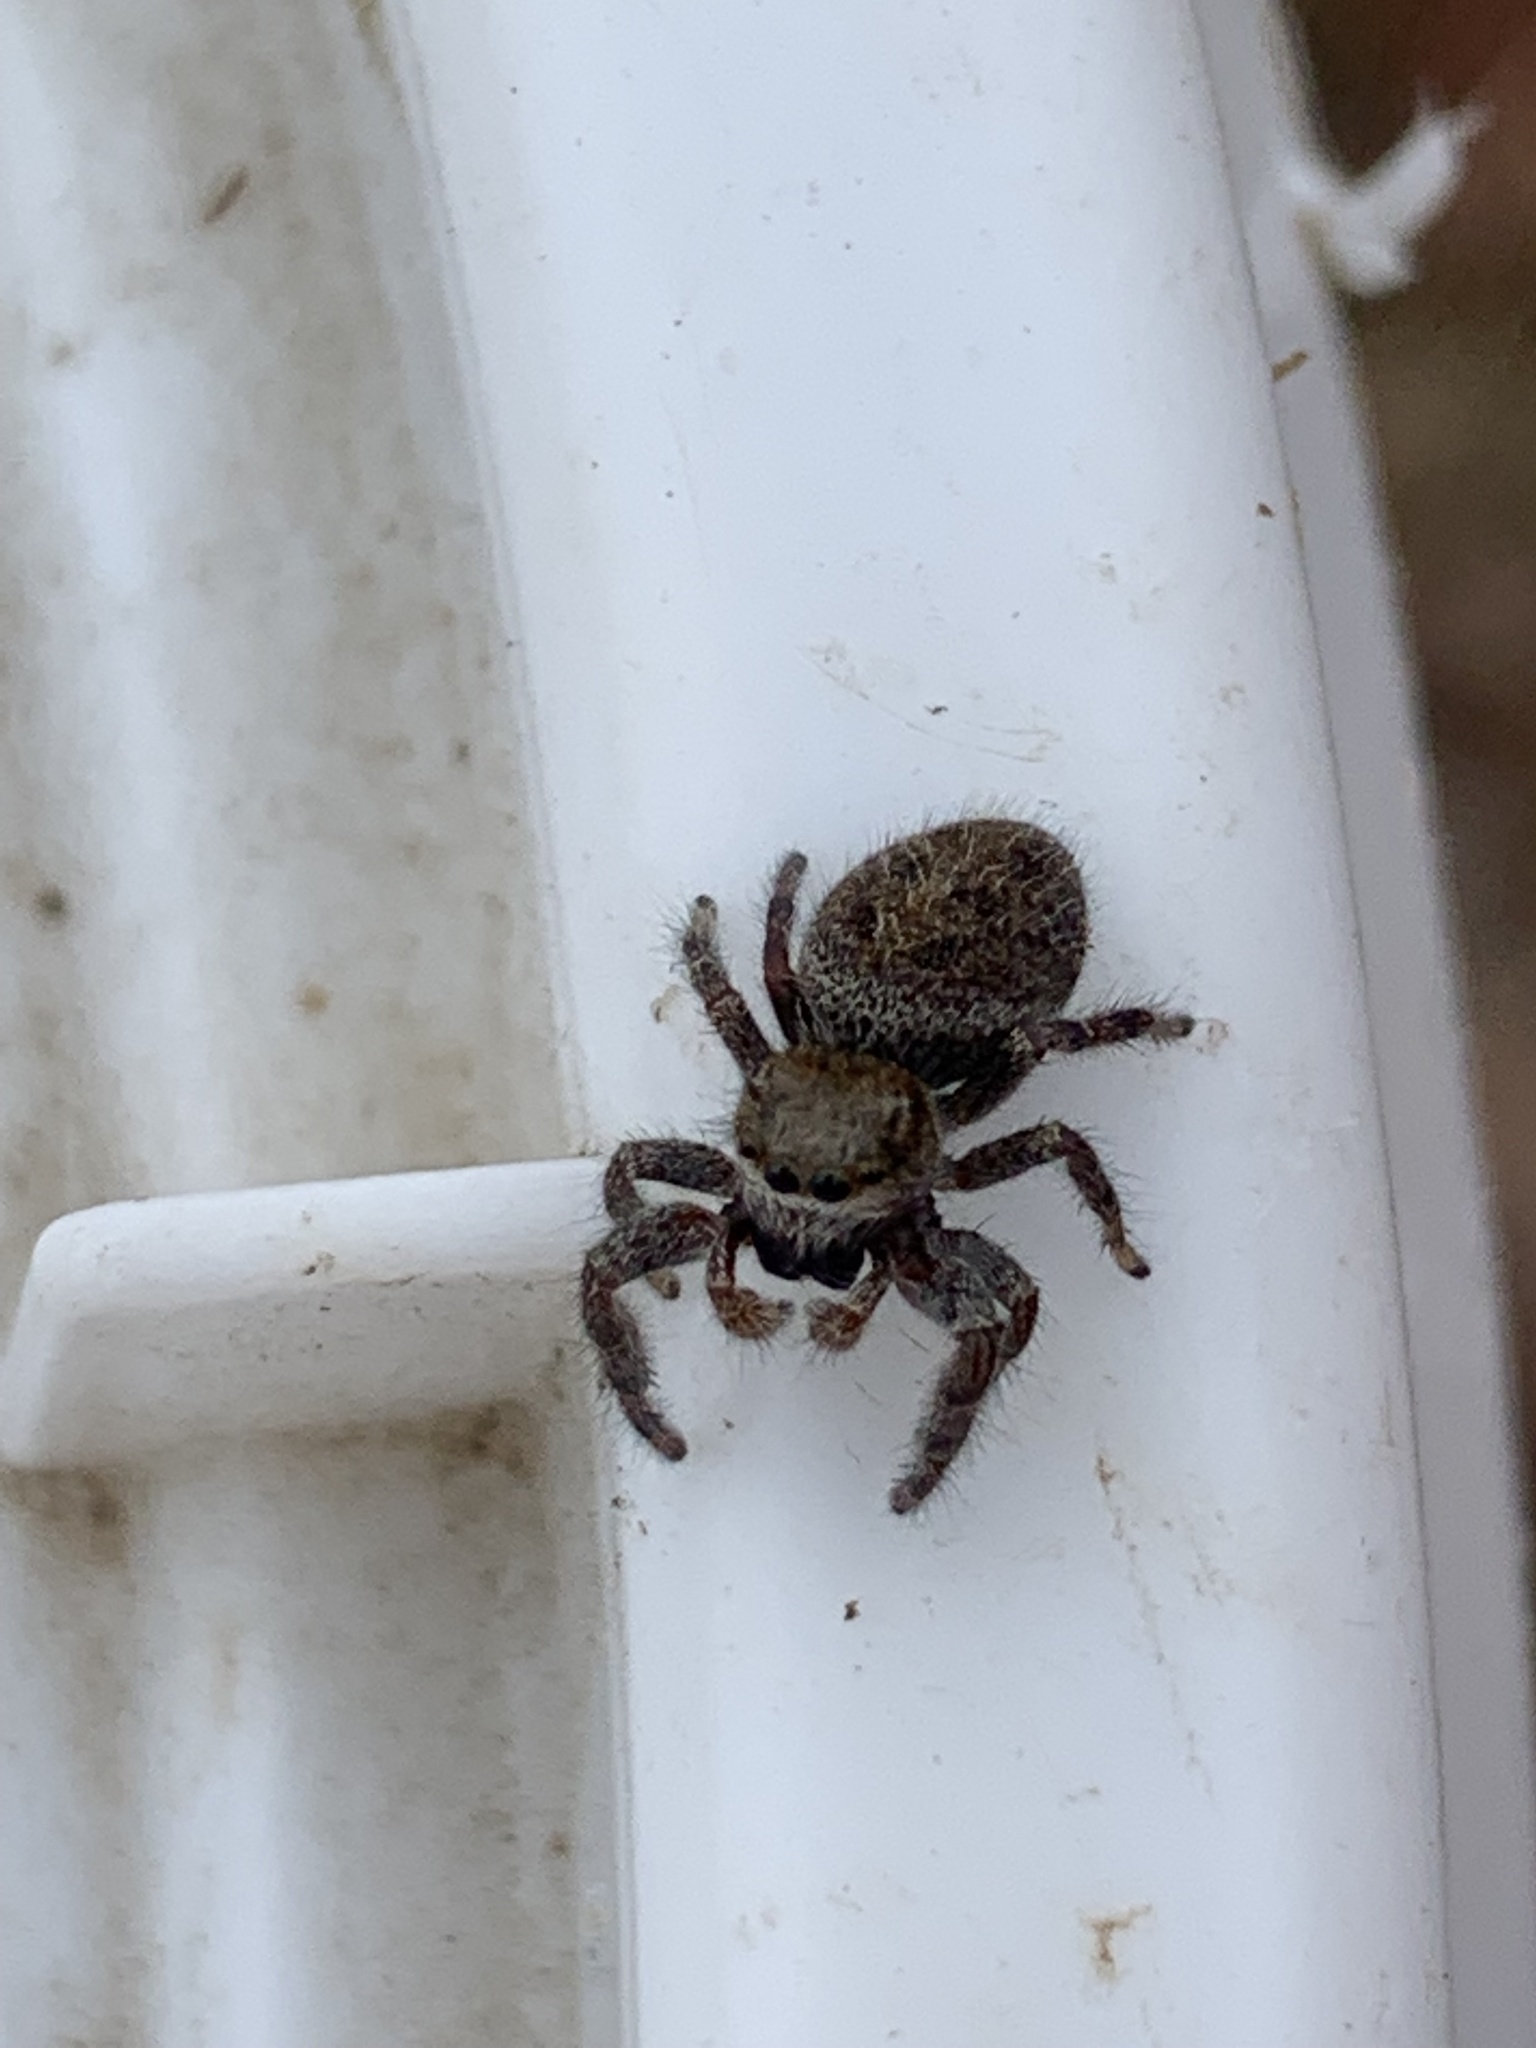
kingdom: Animalia
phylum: Arthropoda
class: Arachnida
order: Araneae
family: Salticidae
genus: Phidippus
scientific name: Phidippus princeps
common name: Grayish jumping spider
